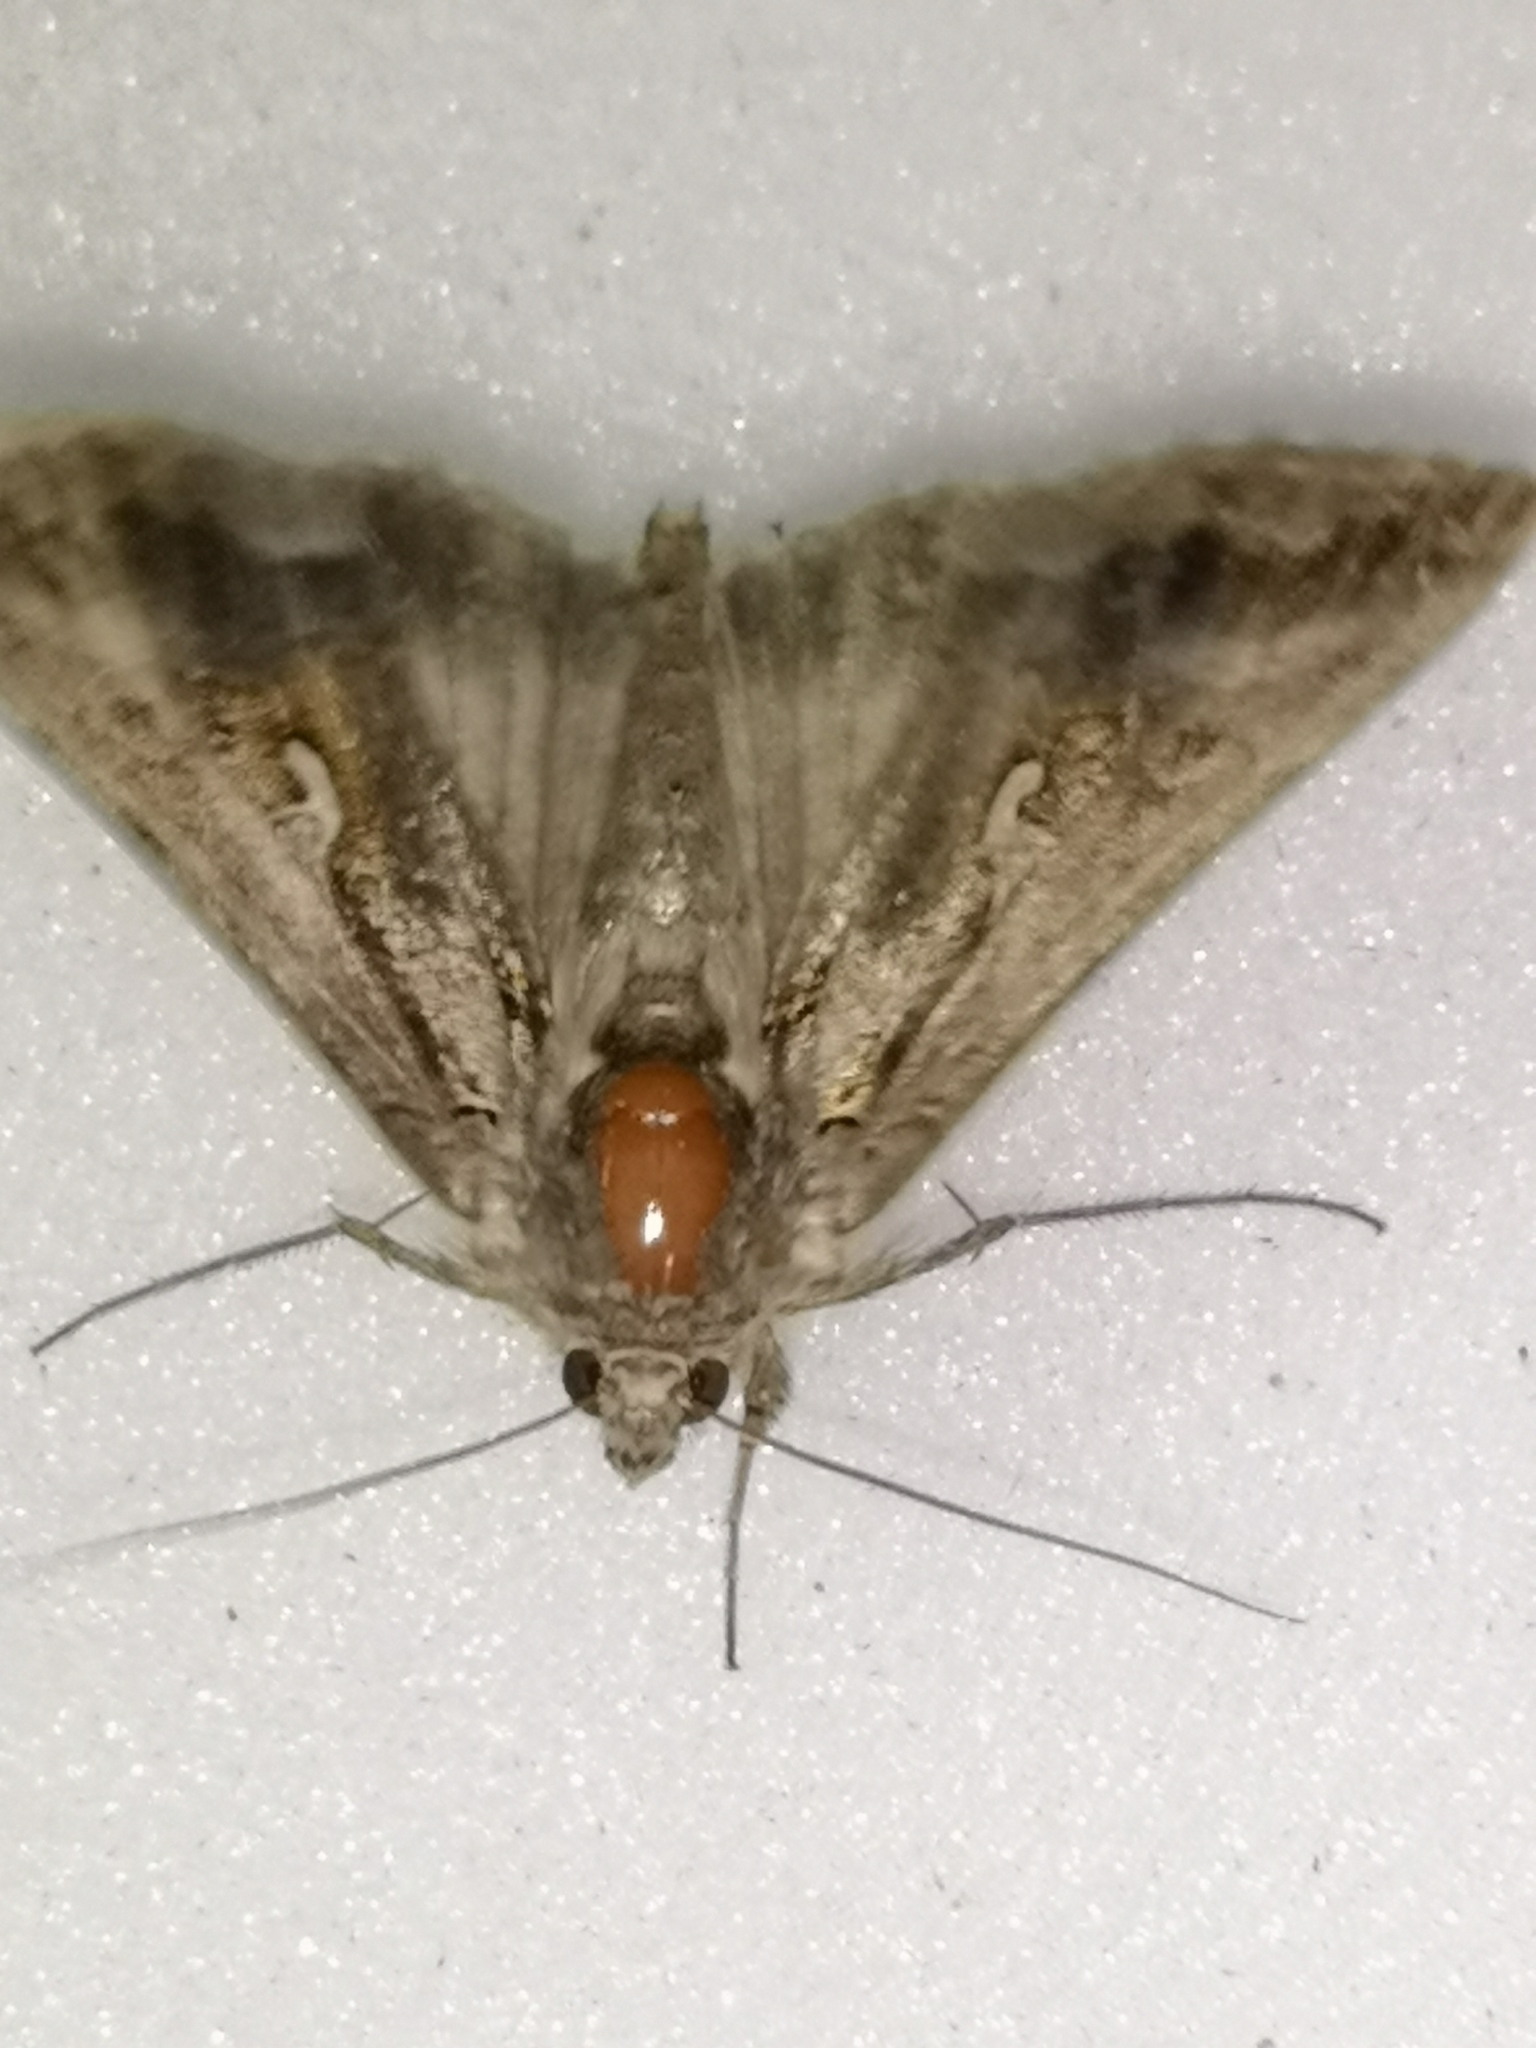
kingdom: Animalia
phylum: Arthropoda
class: Insecta
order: Lepidoptera
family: Noctuidae
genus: Autographa
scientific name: Autographa gamma
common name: Silver y
